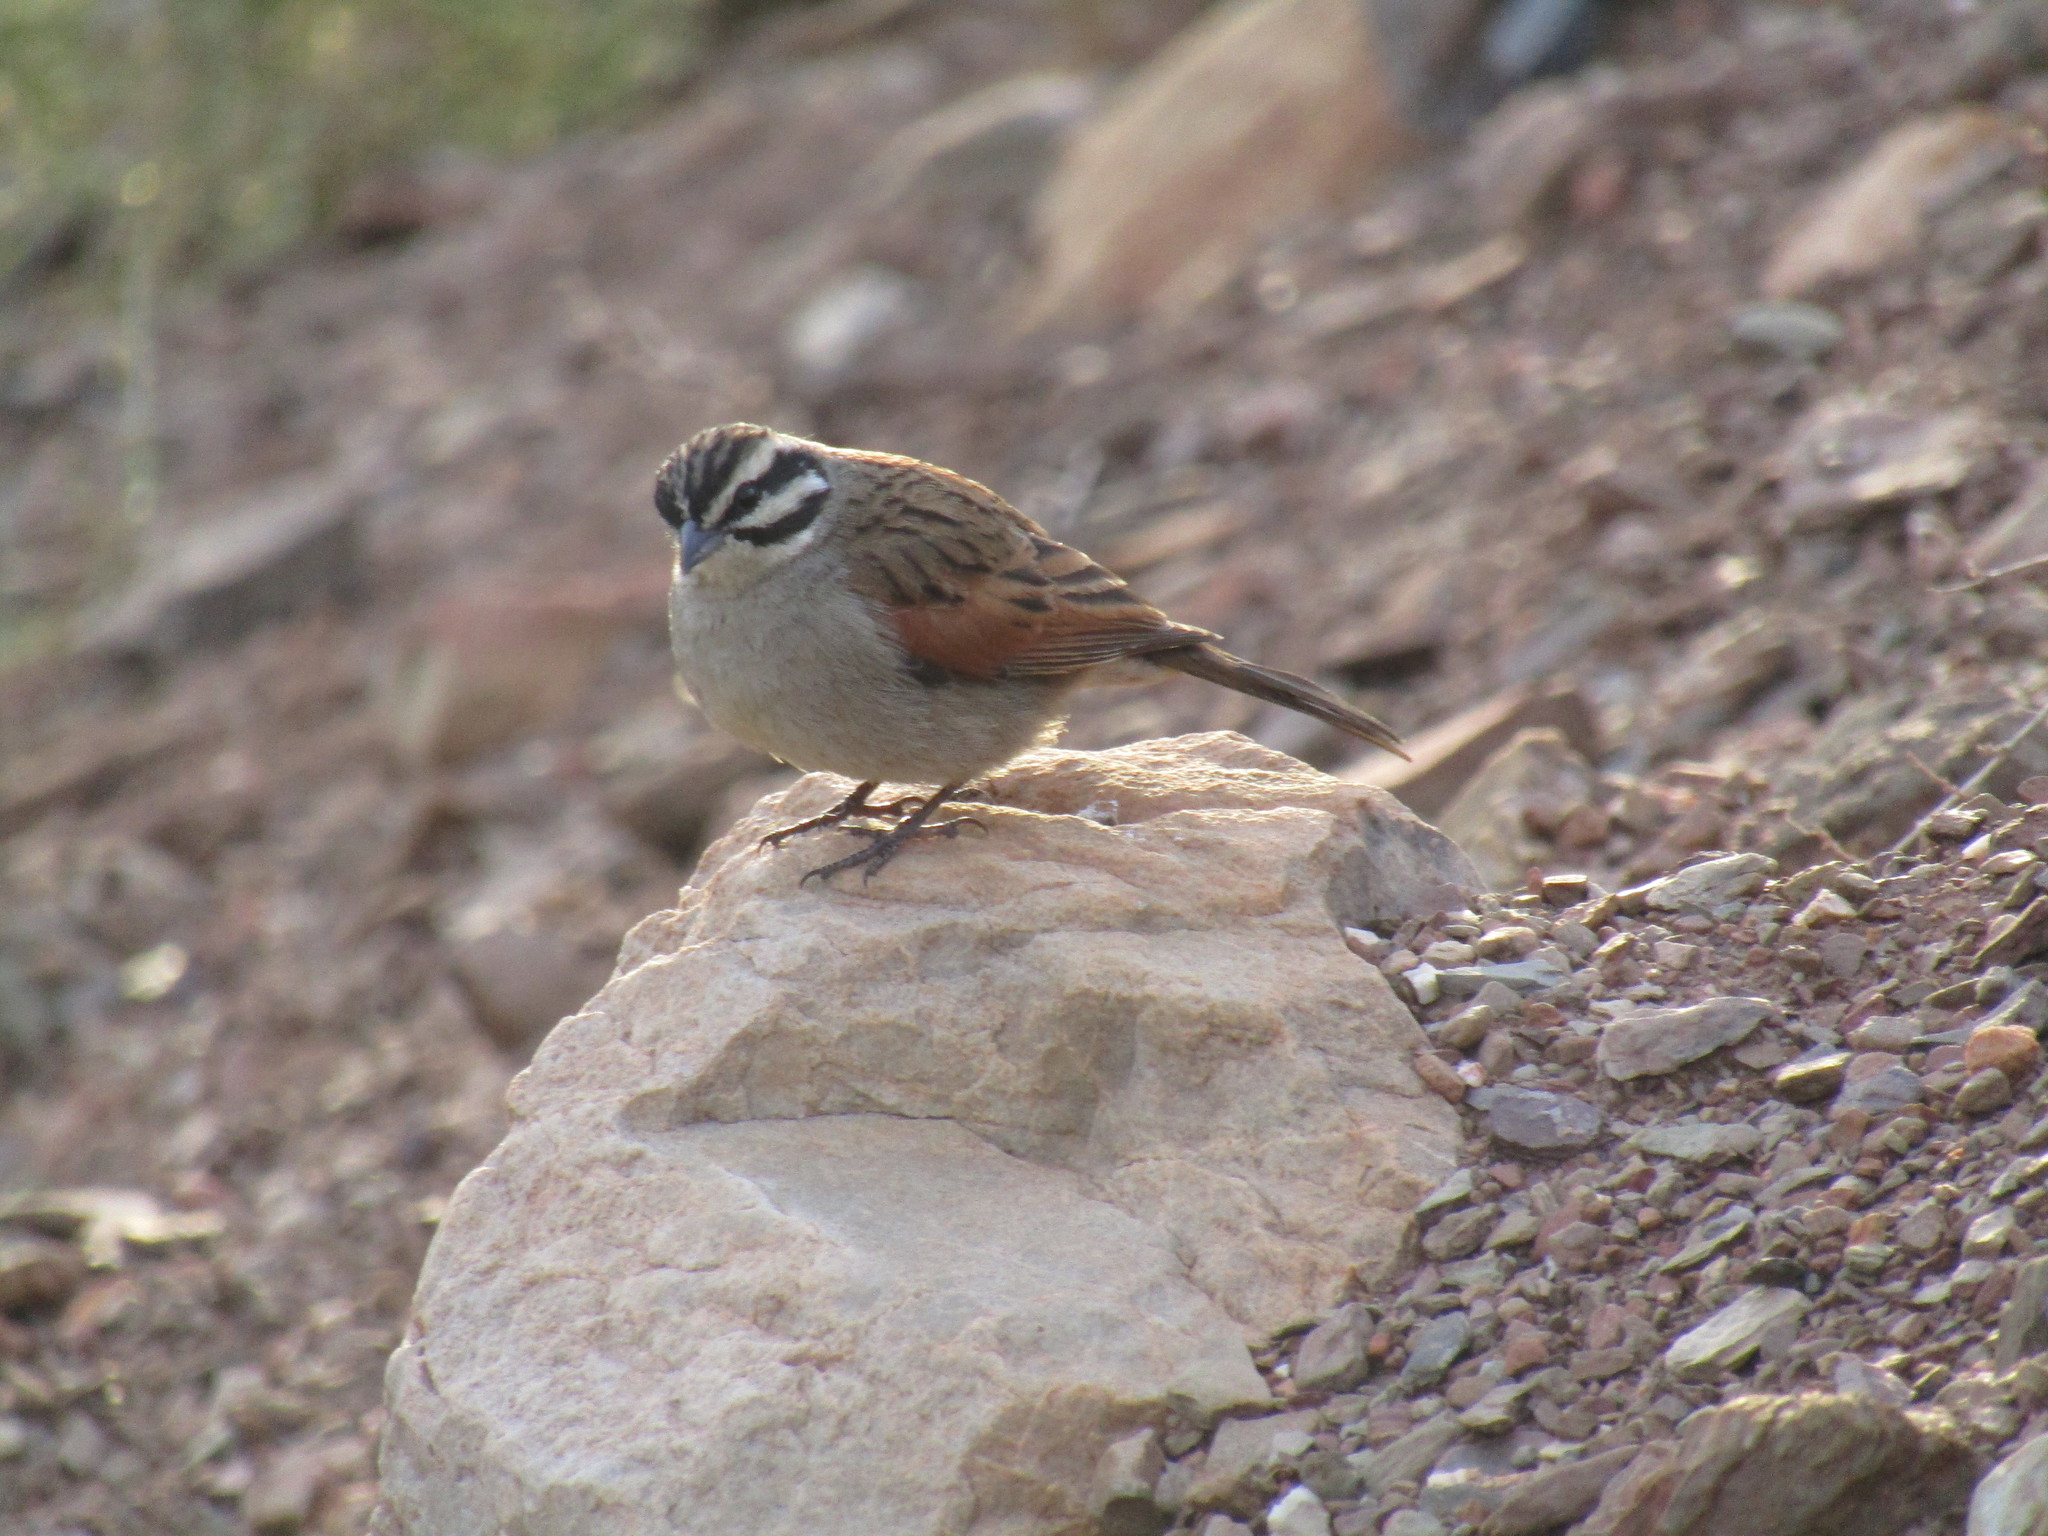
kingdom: Animalia
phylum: Chordata
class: Aves
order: Passeriformes
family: Emberizidae
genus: Emberiza
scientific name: Emberiza capensis
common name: Cape bunting
